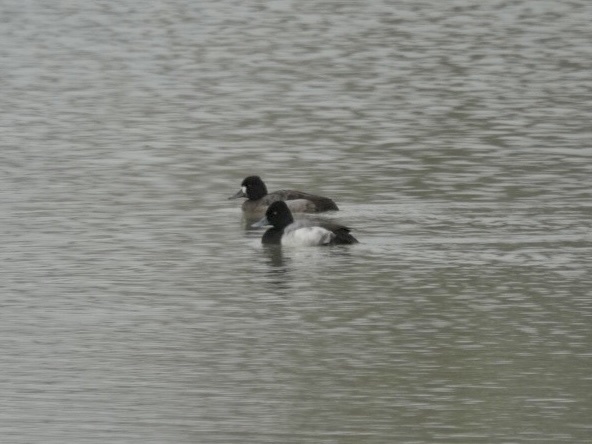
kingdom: Animalia
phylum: Chordata
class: Aves
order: Anseriformes
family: Anatidae
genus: Aythya
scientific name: Aythya affinis
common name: Lesser scaup
